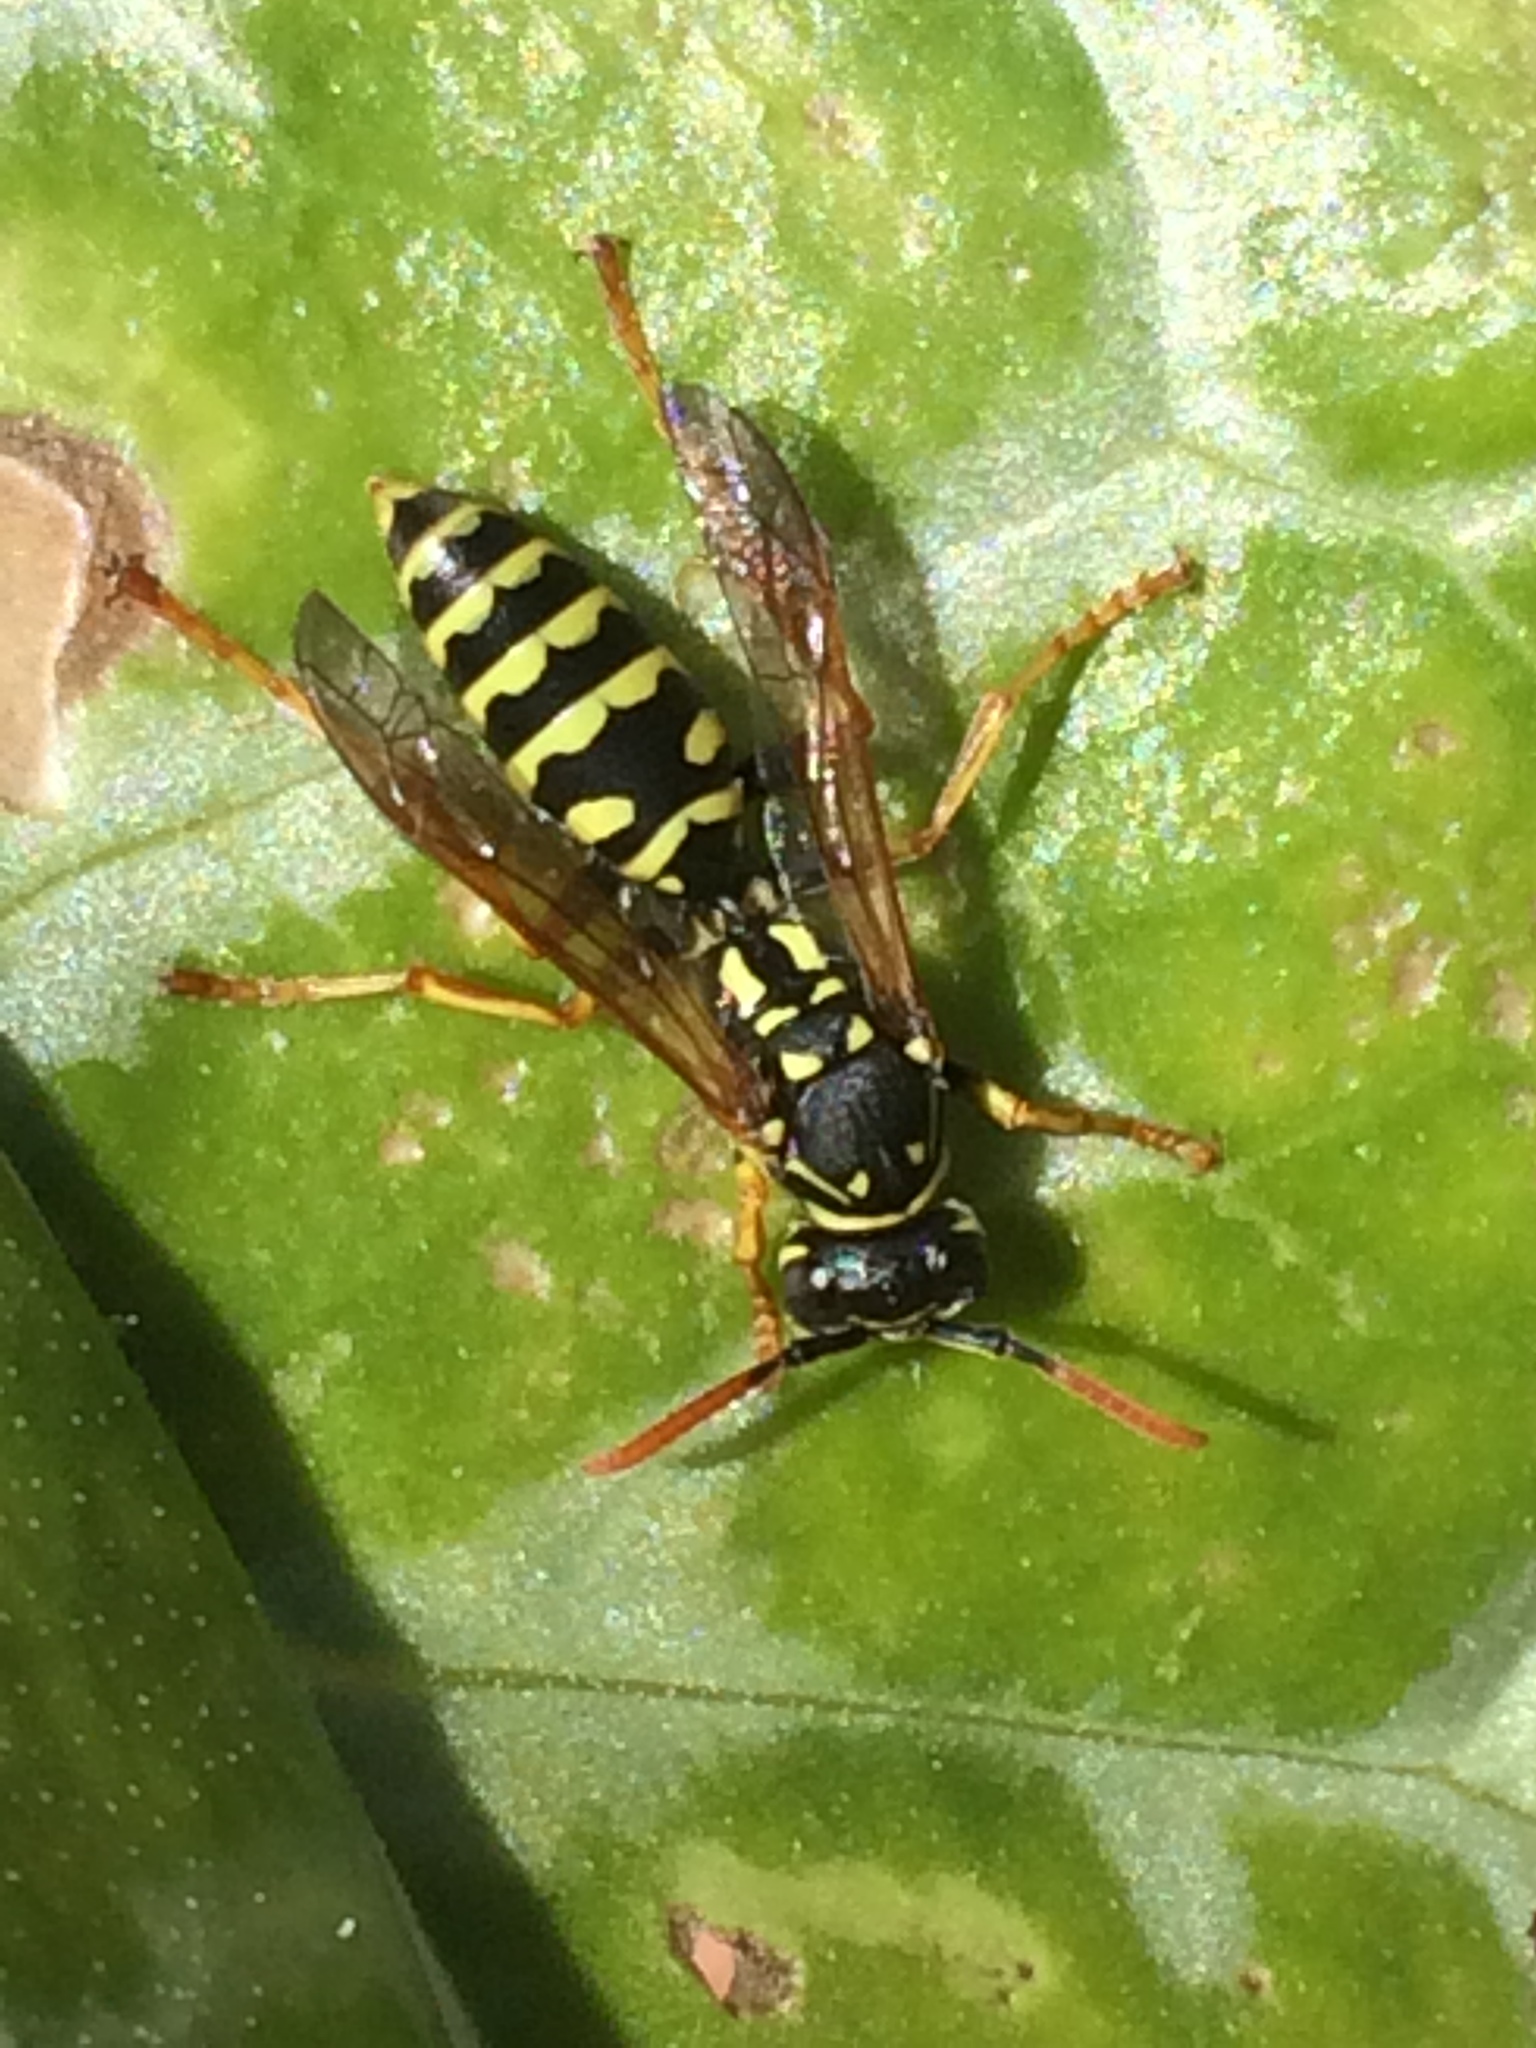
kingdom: Animalia
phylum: Arthropoda
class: Insecta
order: Hymenoptera
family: Eumenidae
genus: Polistes
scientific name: Polistes dominula
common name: Paper wasp
